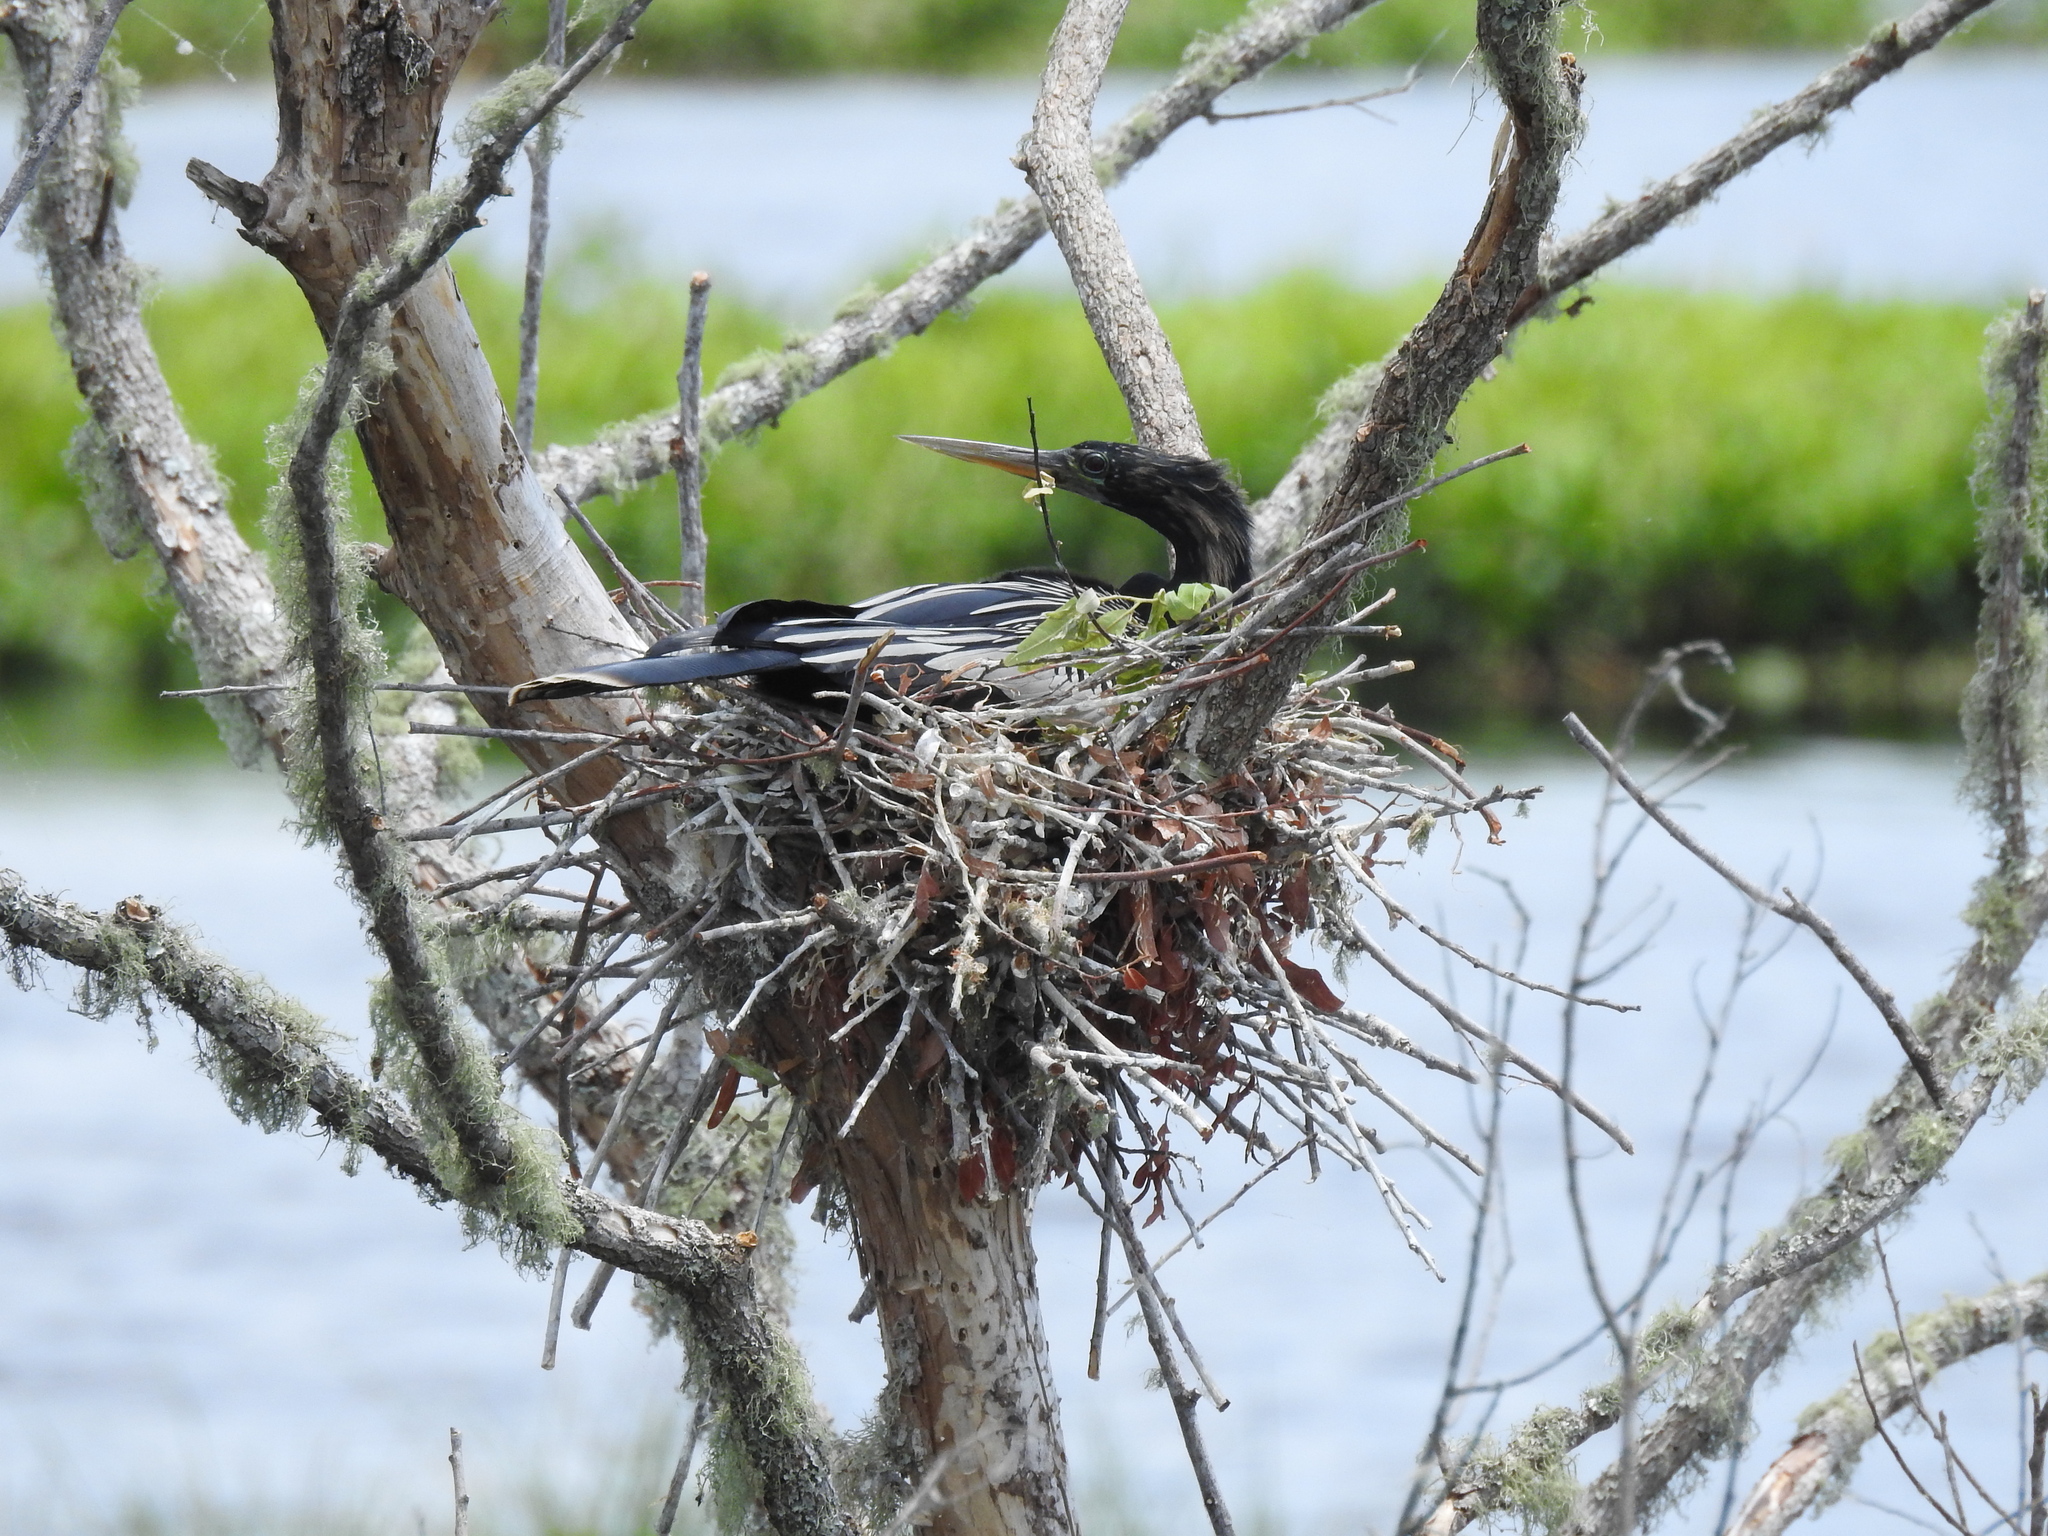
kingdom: Animalia
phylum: Chordata
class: Aves
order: Suliformes
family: Anhingidae
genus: Anhinga
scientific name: Anhinga anhinga
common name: Anhinga
